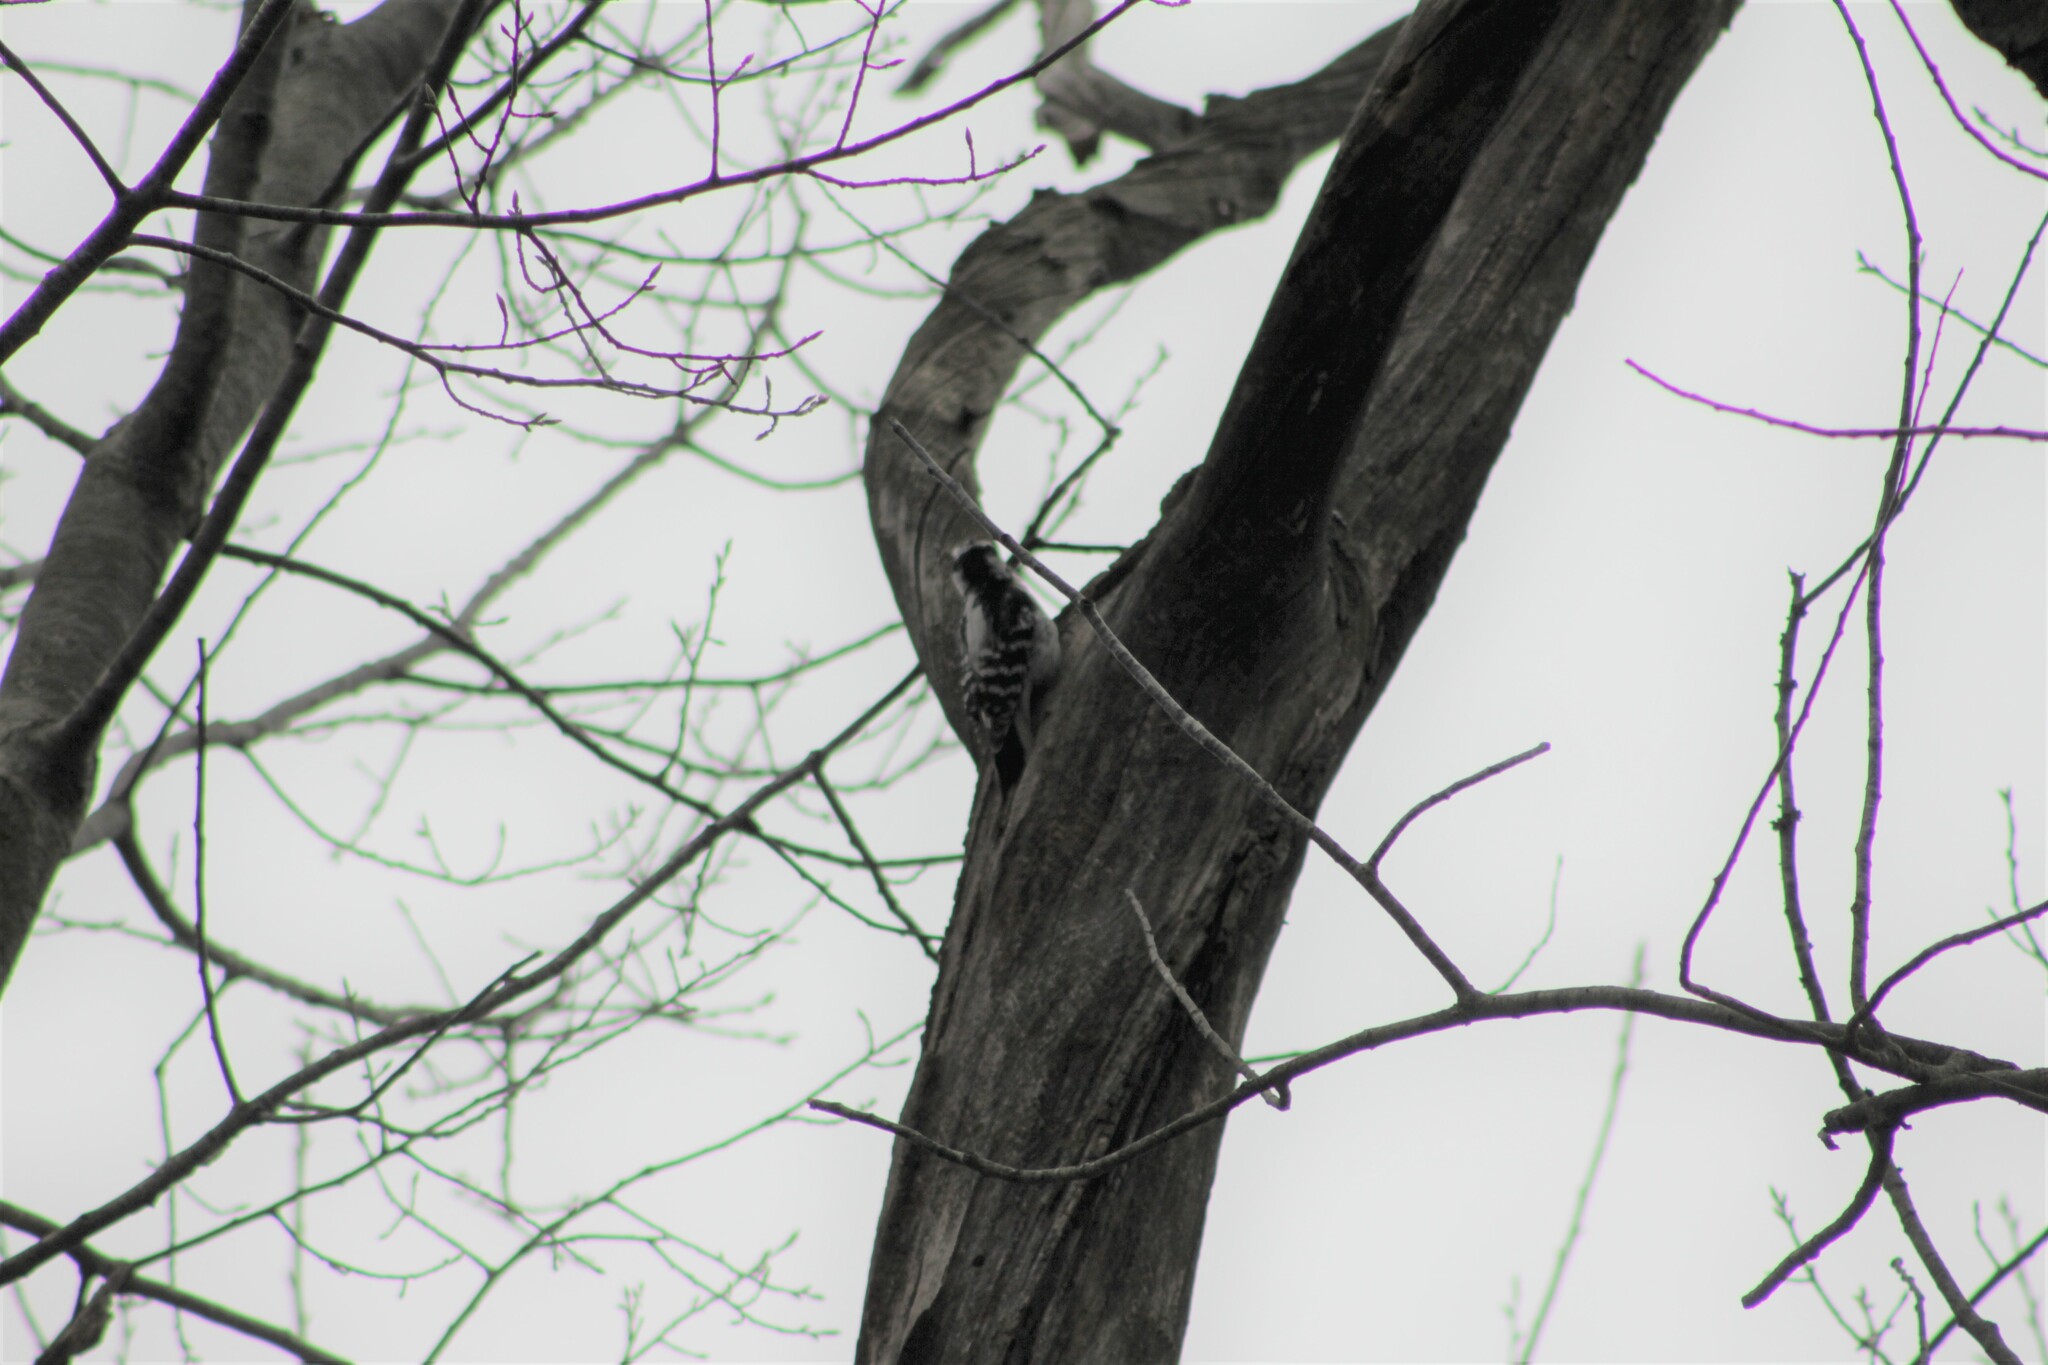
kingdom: Animalia
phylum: Chordata
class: Aves
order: Piciformes
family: Picidae
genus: Dryobates
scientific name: Dryobates pubescens
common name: Downy woodpecker
